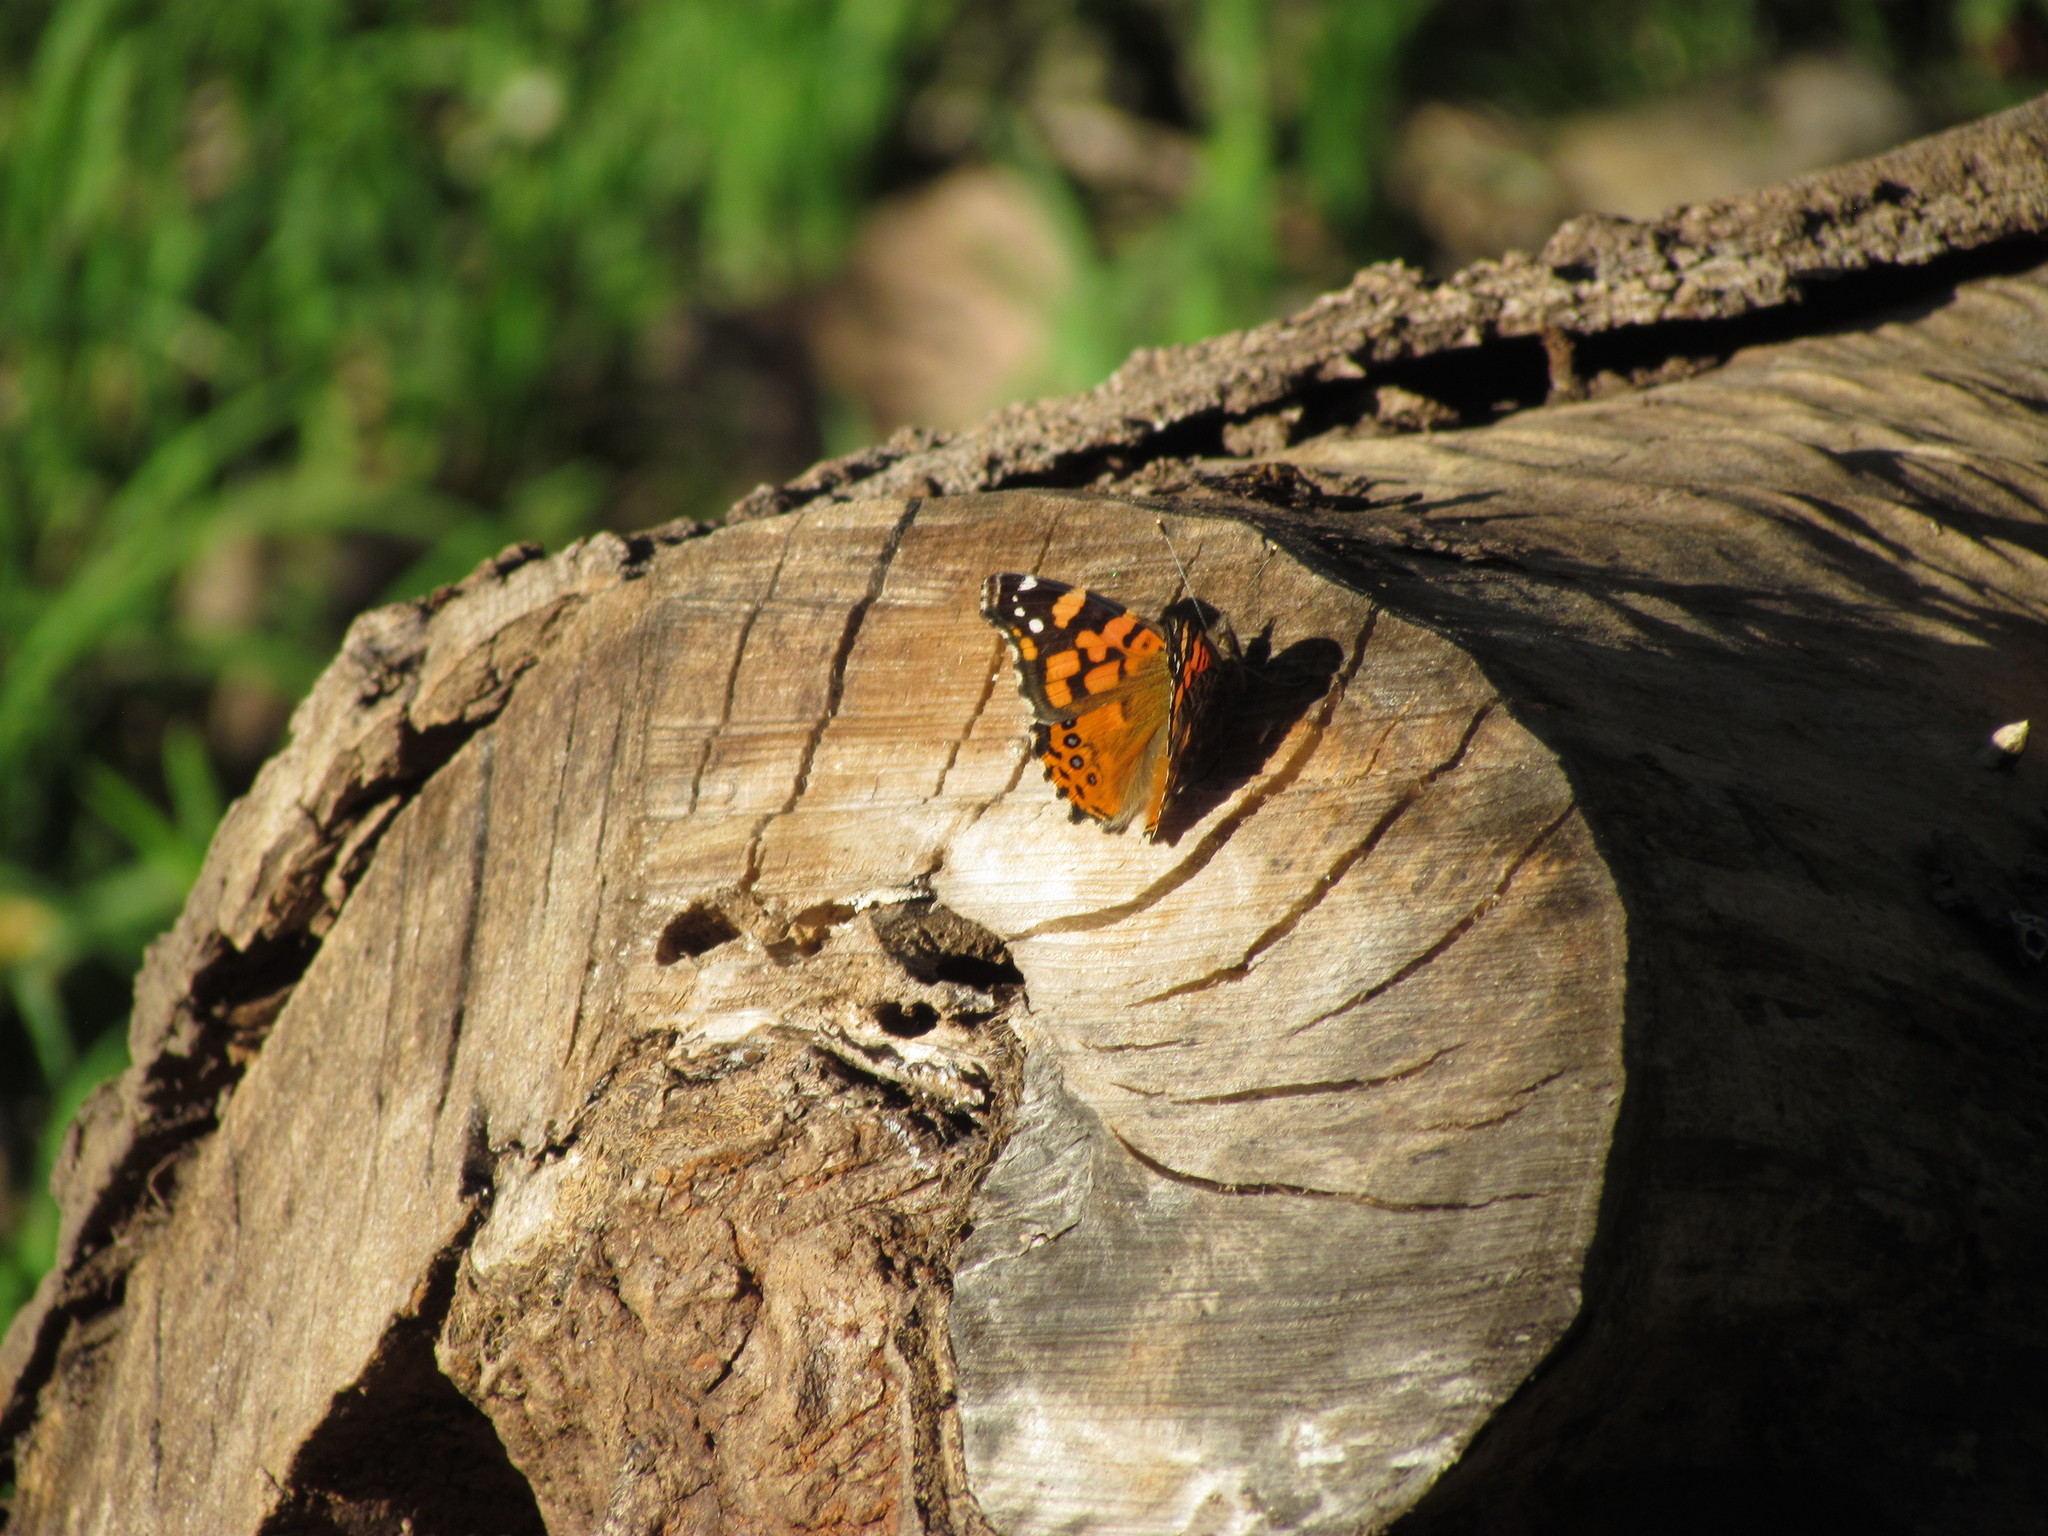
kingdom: Animalia
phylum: Arthropoda
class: Insecta
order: Lepidoptera
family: Nymphalidae
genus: Vanessa
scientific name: Vanessa carye
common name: Subtropical lady
